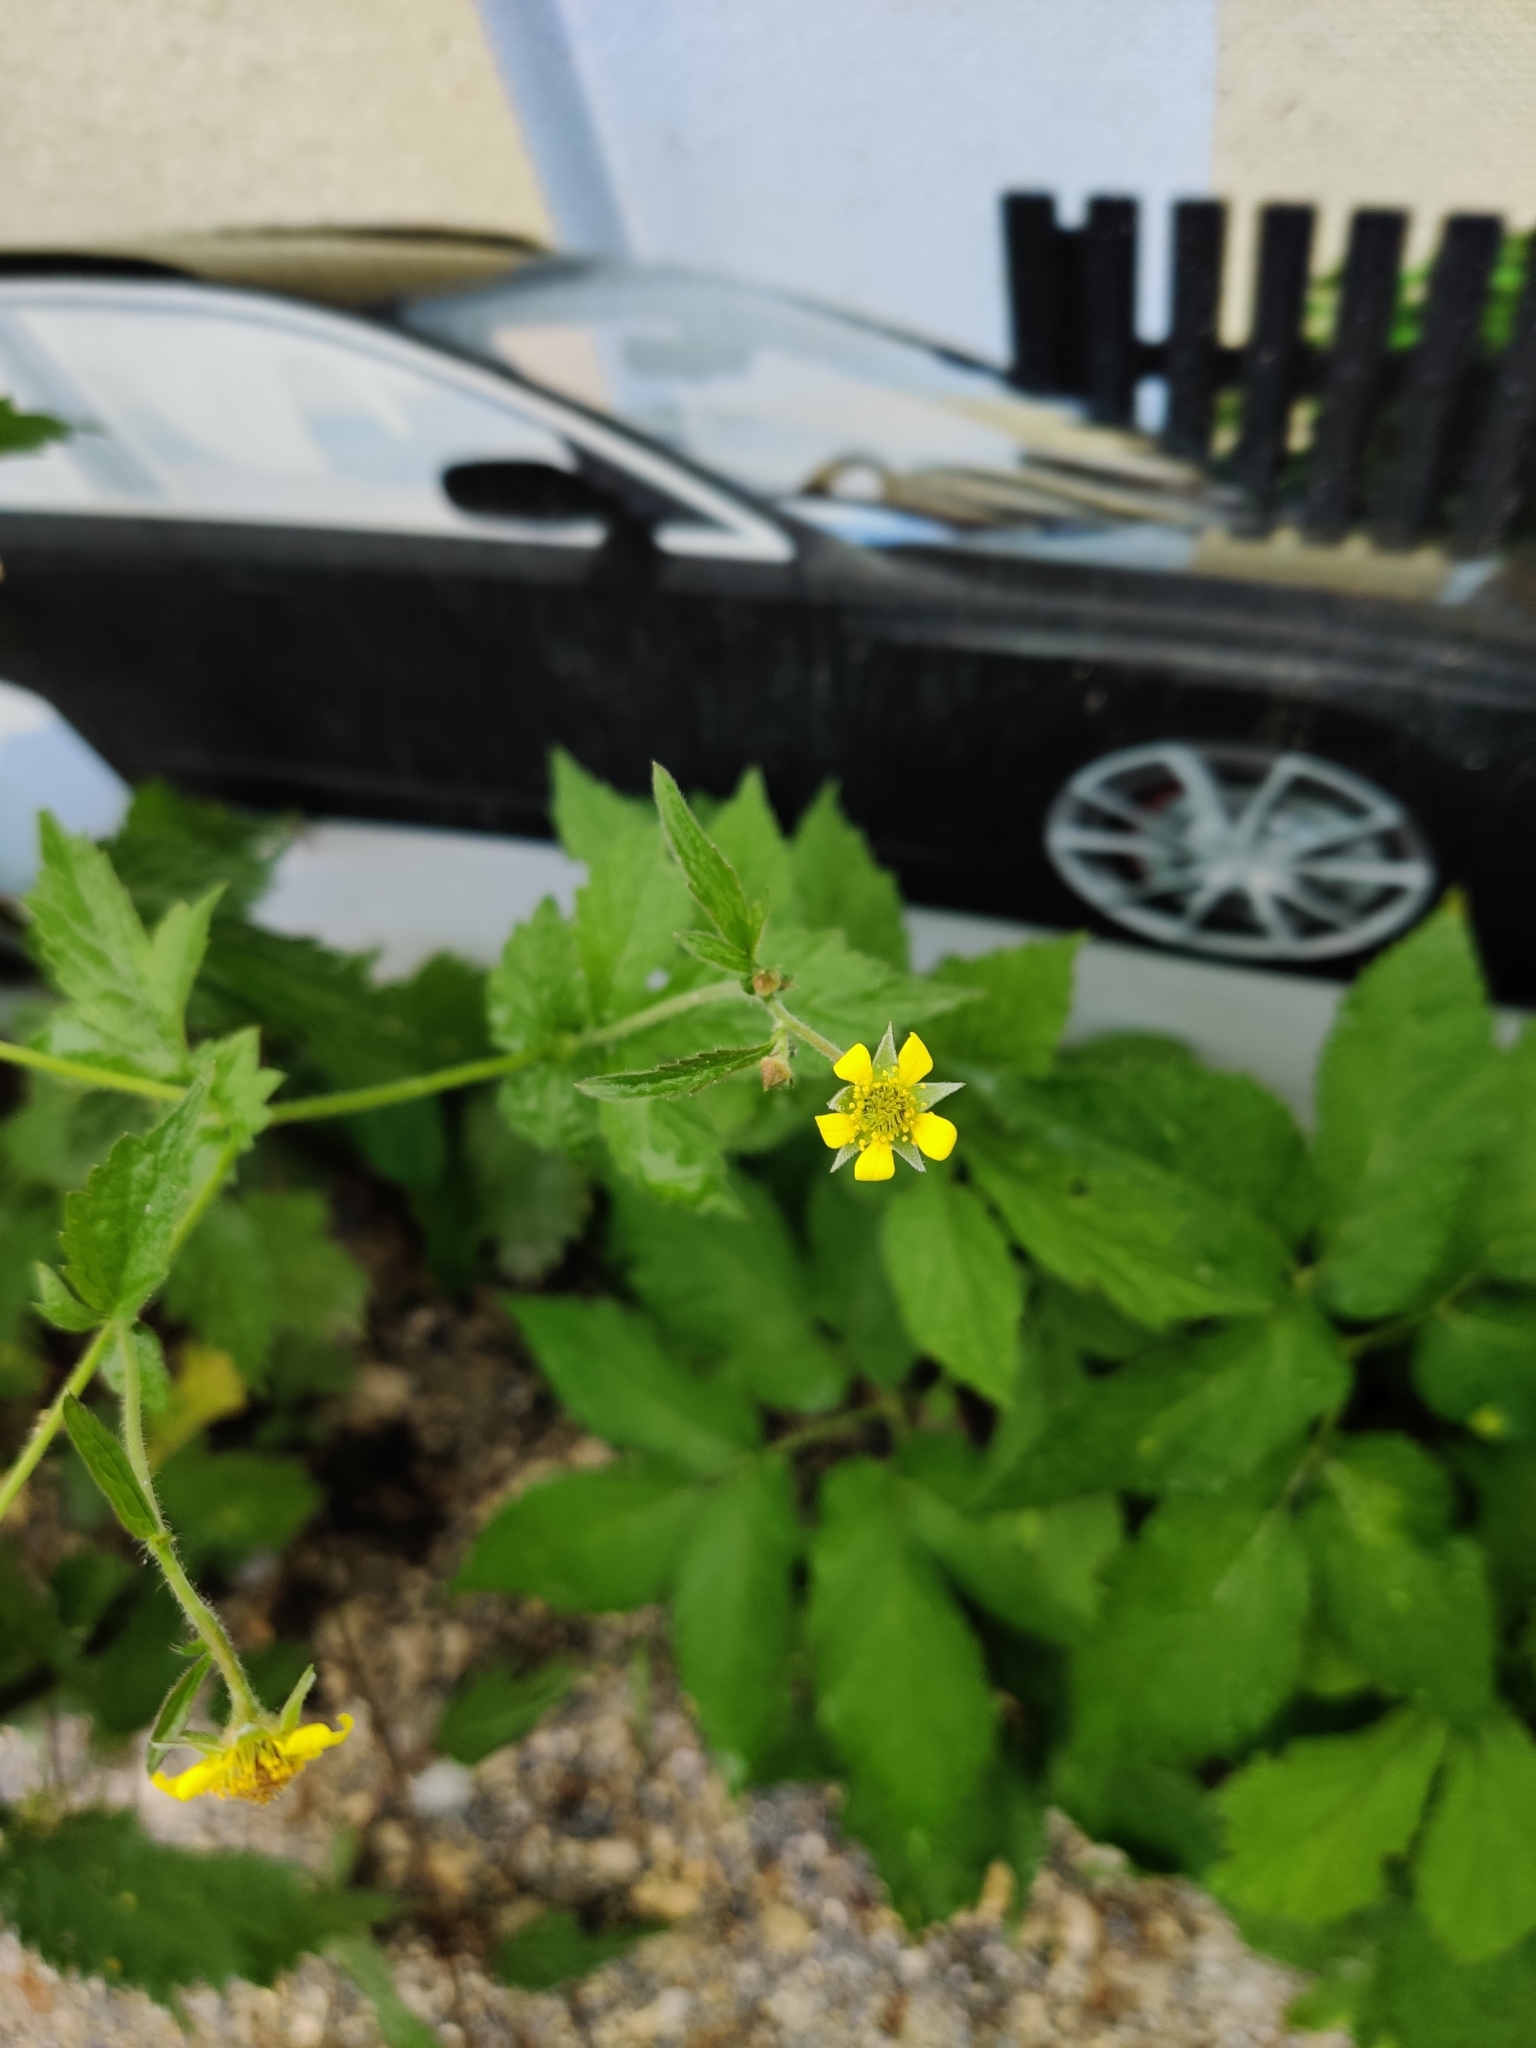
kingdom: Plantae
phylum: Tracheophyta
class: Magnoliopsida
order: Rosales
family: Rosaceae
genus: Geum
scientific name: Geum urbanum
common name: Wood avens
